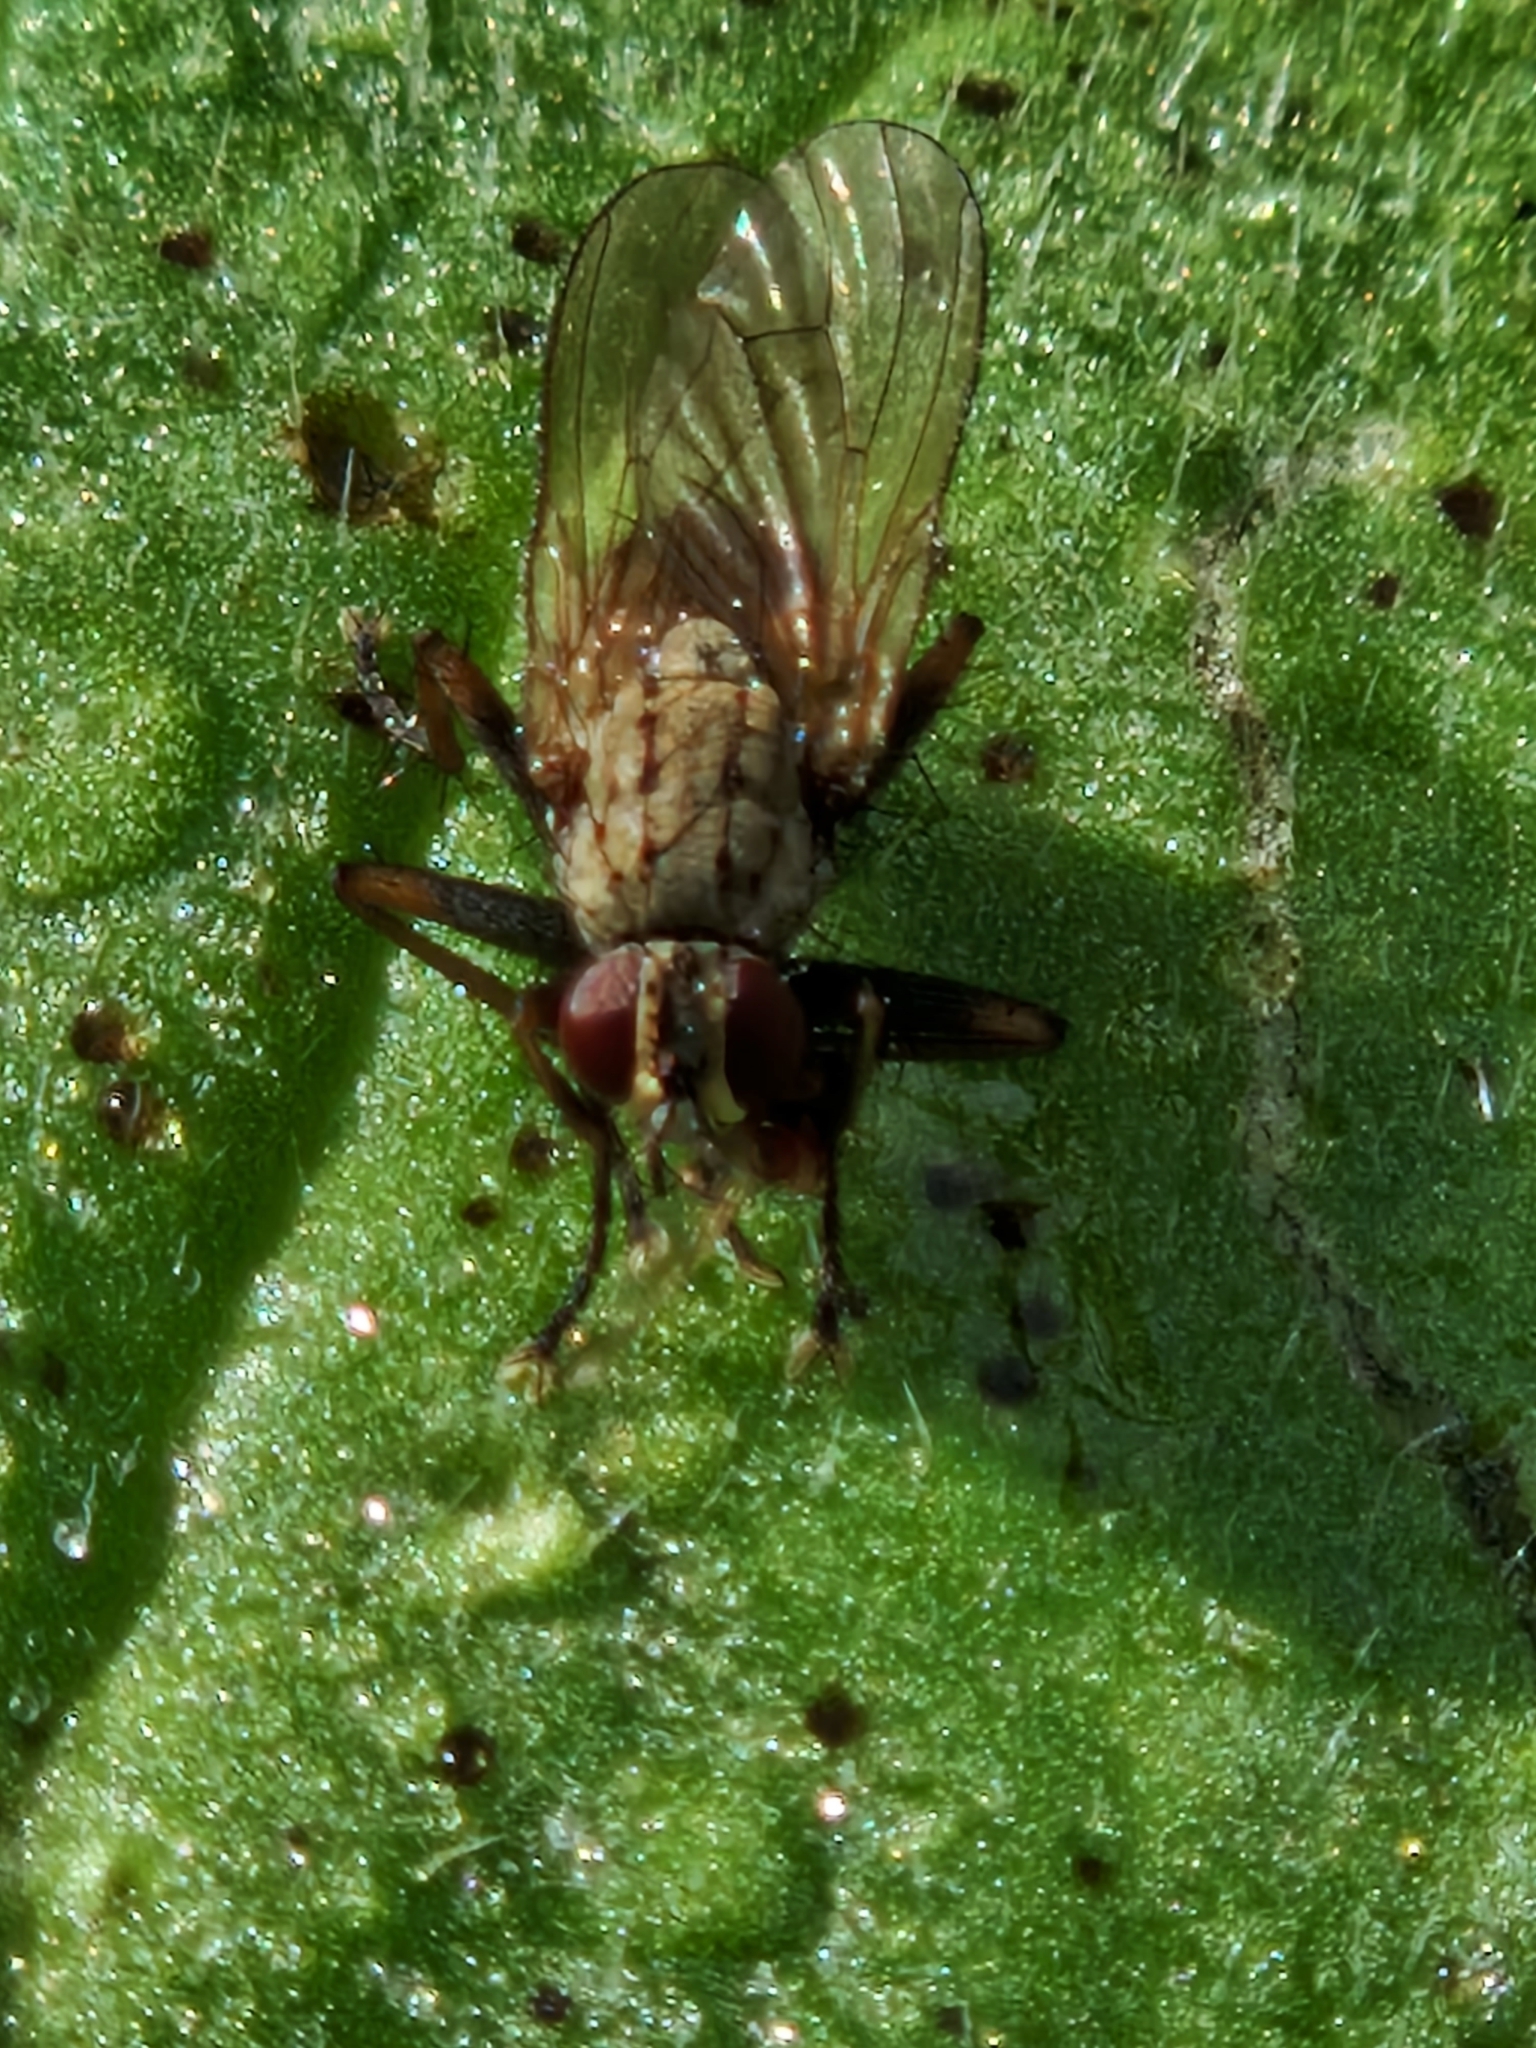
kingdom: Animalia
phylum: Arthropoda
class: Insecta
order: Diptera
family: Muscidae
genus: Coenosia
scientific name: Coenosia tigrina
